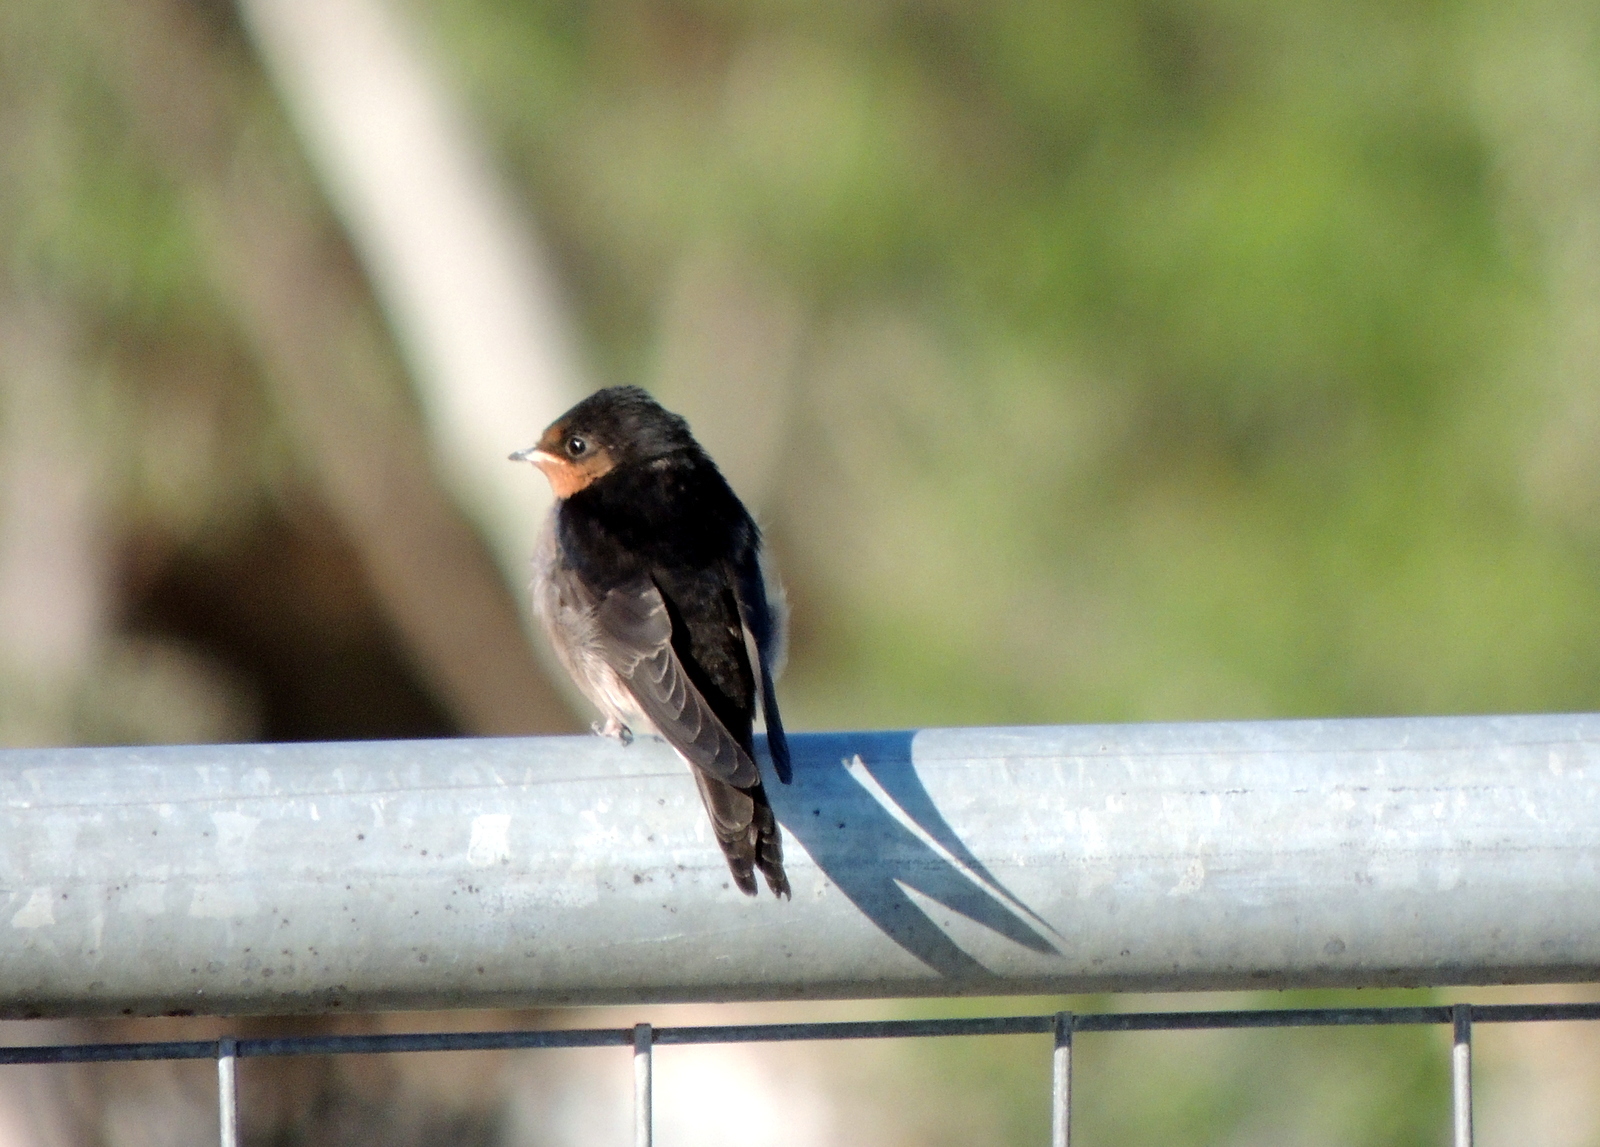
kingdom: Animalia
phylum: Chordata
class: Aves
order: Passeriformes
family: Hirundinidae
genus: Hirundo
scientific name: Hirundo neoxena
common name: Welcome swallow
